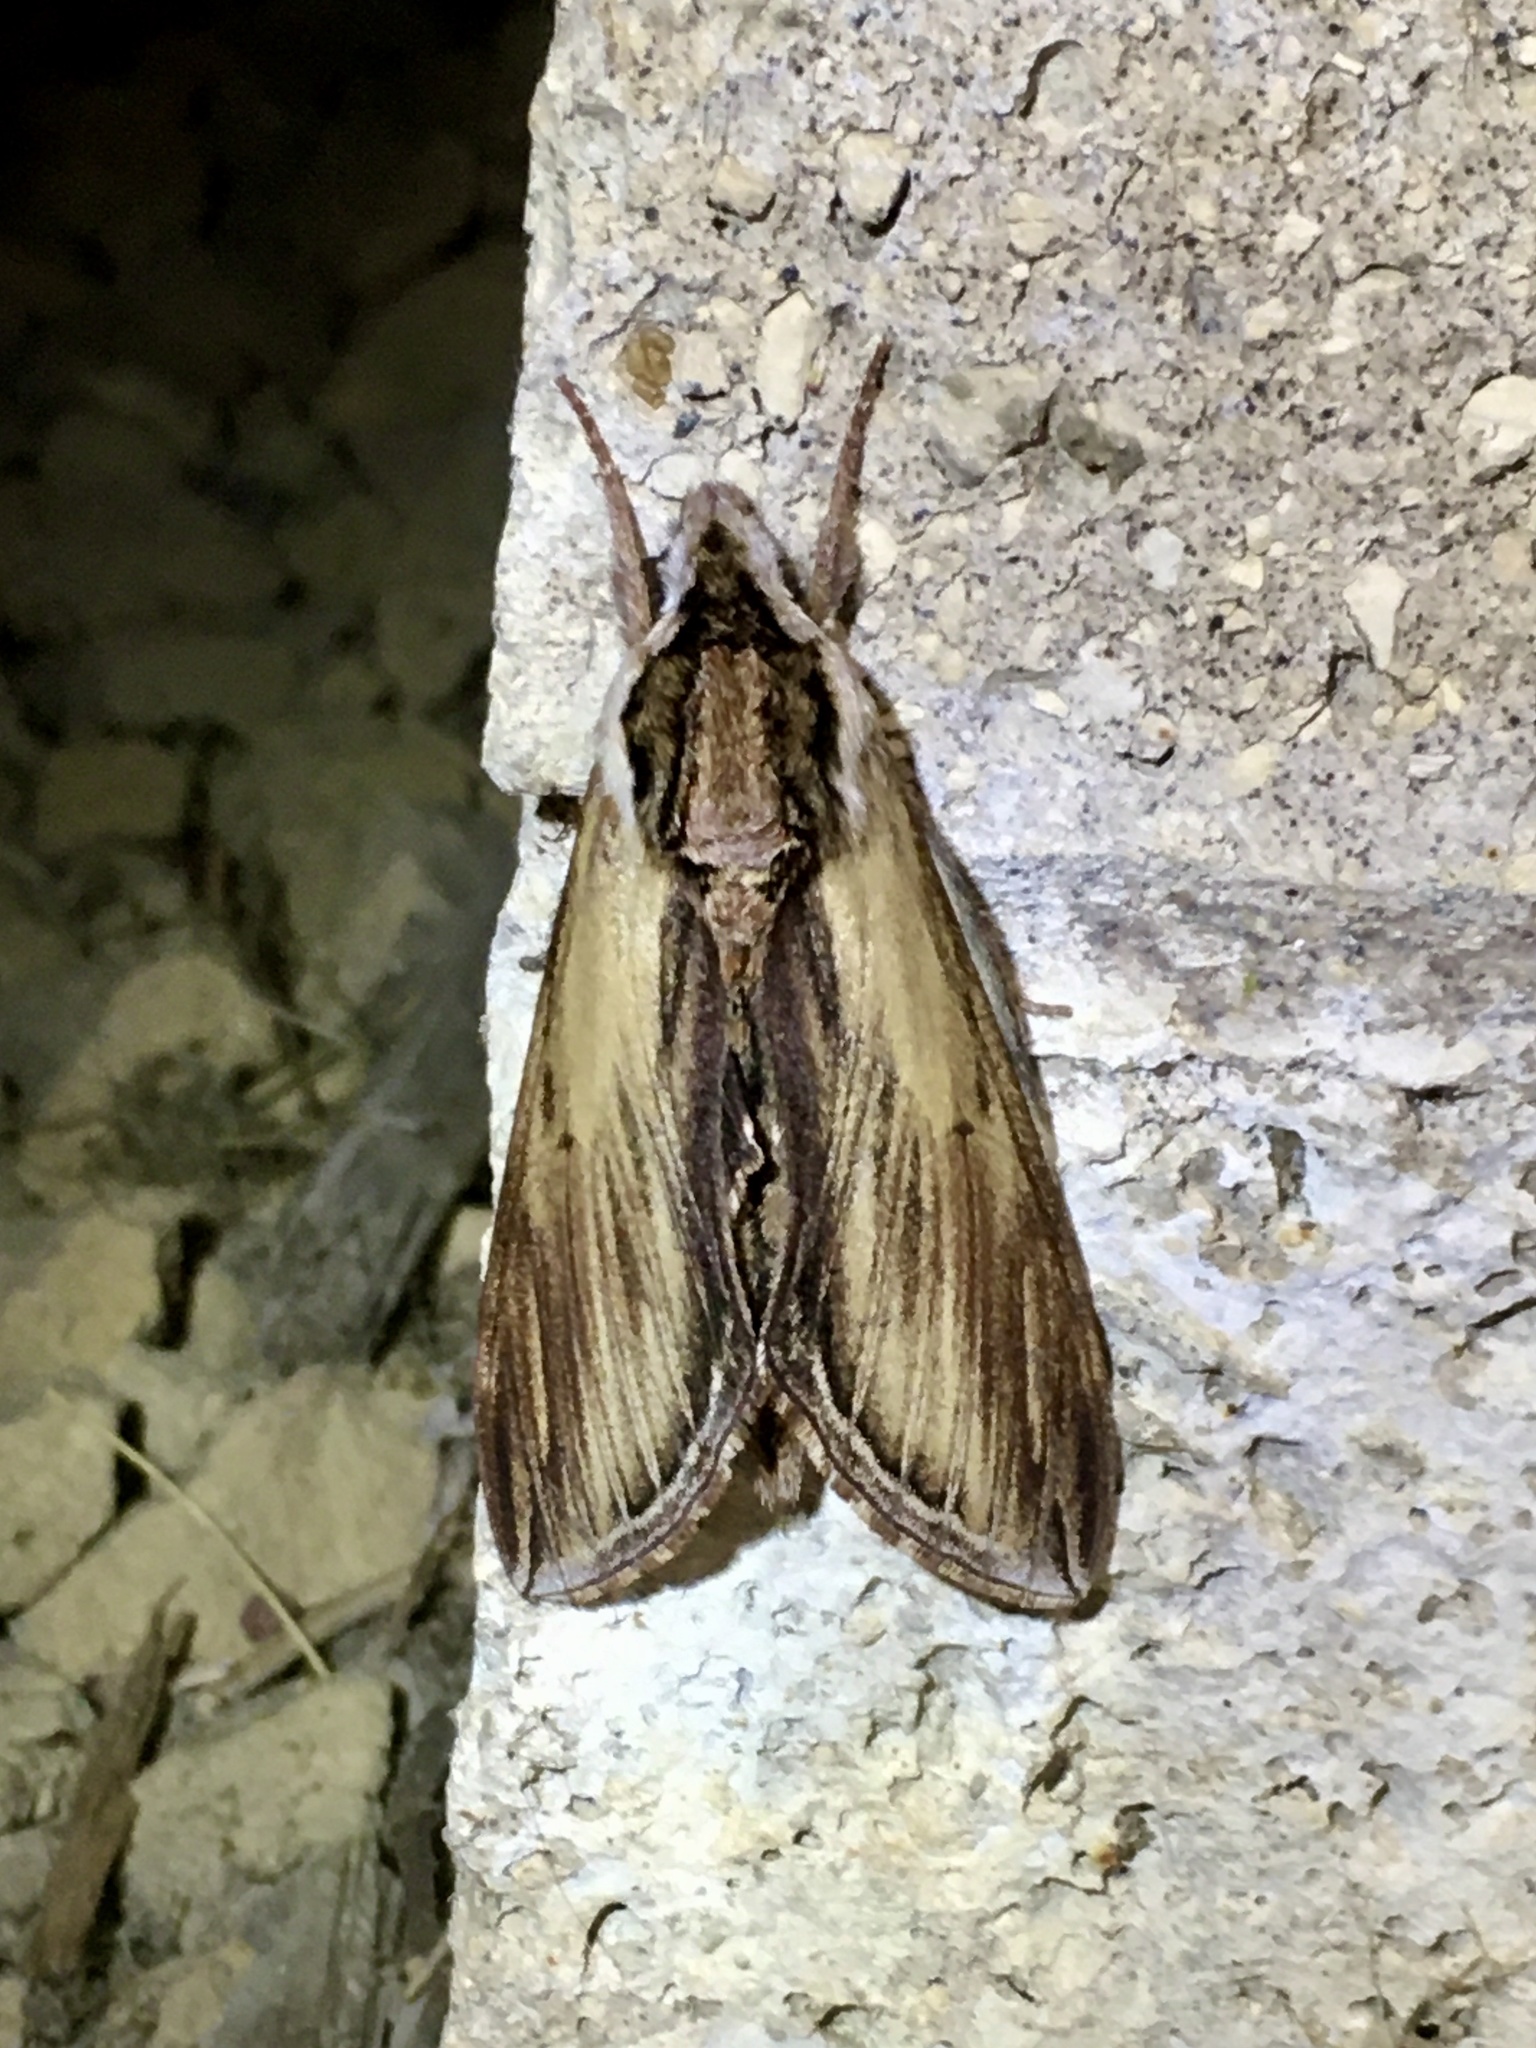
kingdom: Animalia
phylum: Arthropoda
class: Insecta
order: Lepidoptera
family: Sphingidae
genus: Sphinx
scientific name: Sphinx kalmiae
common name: Laurel sphinx
